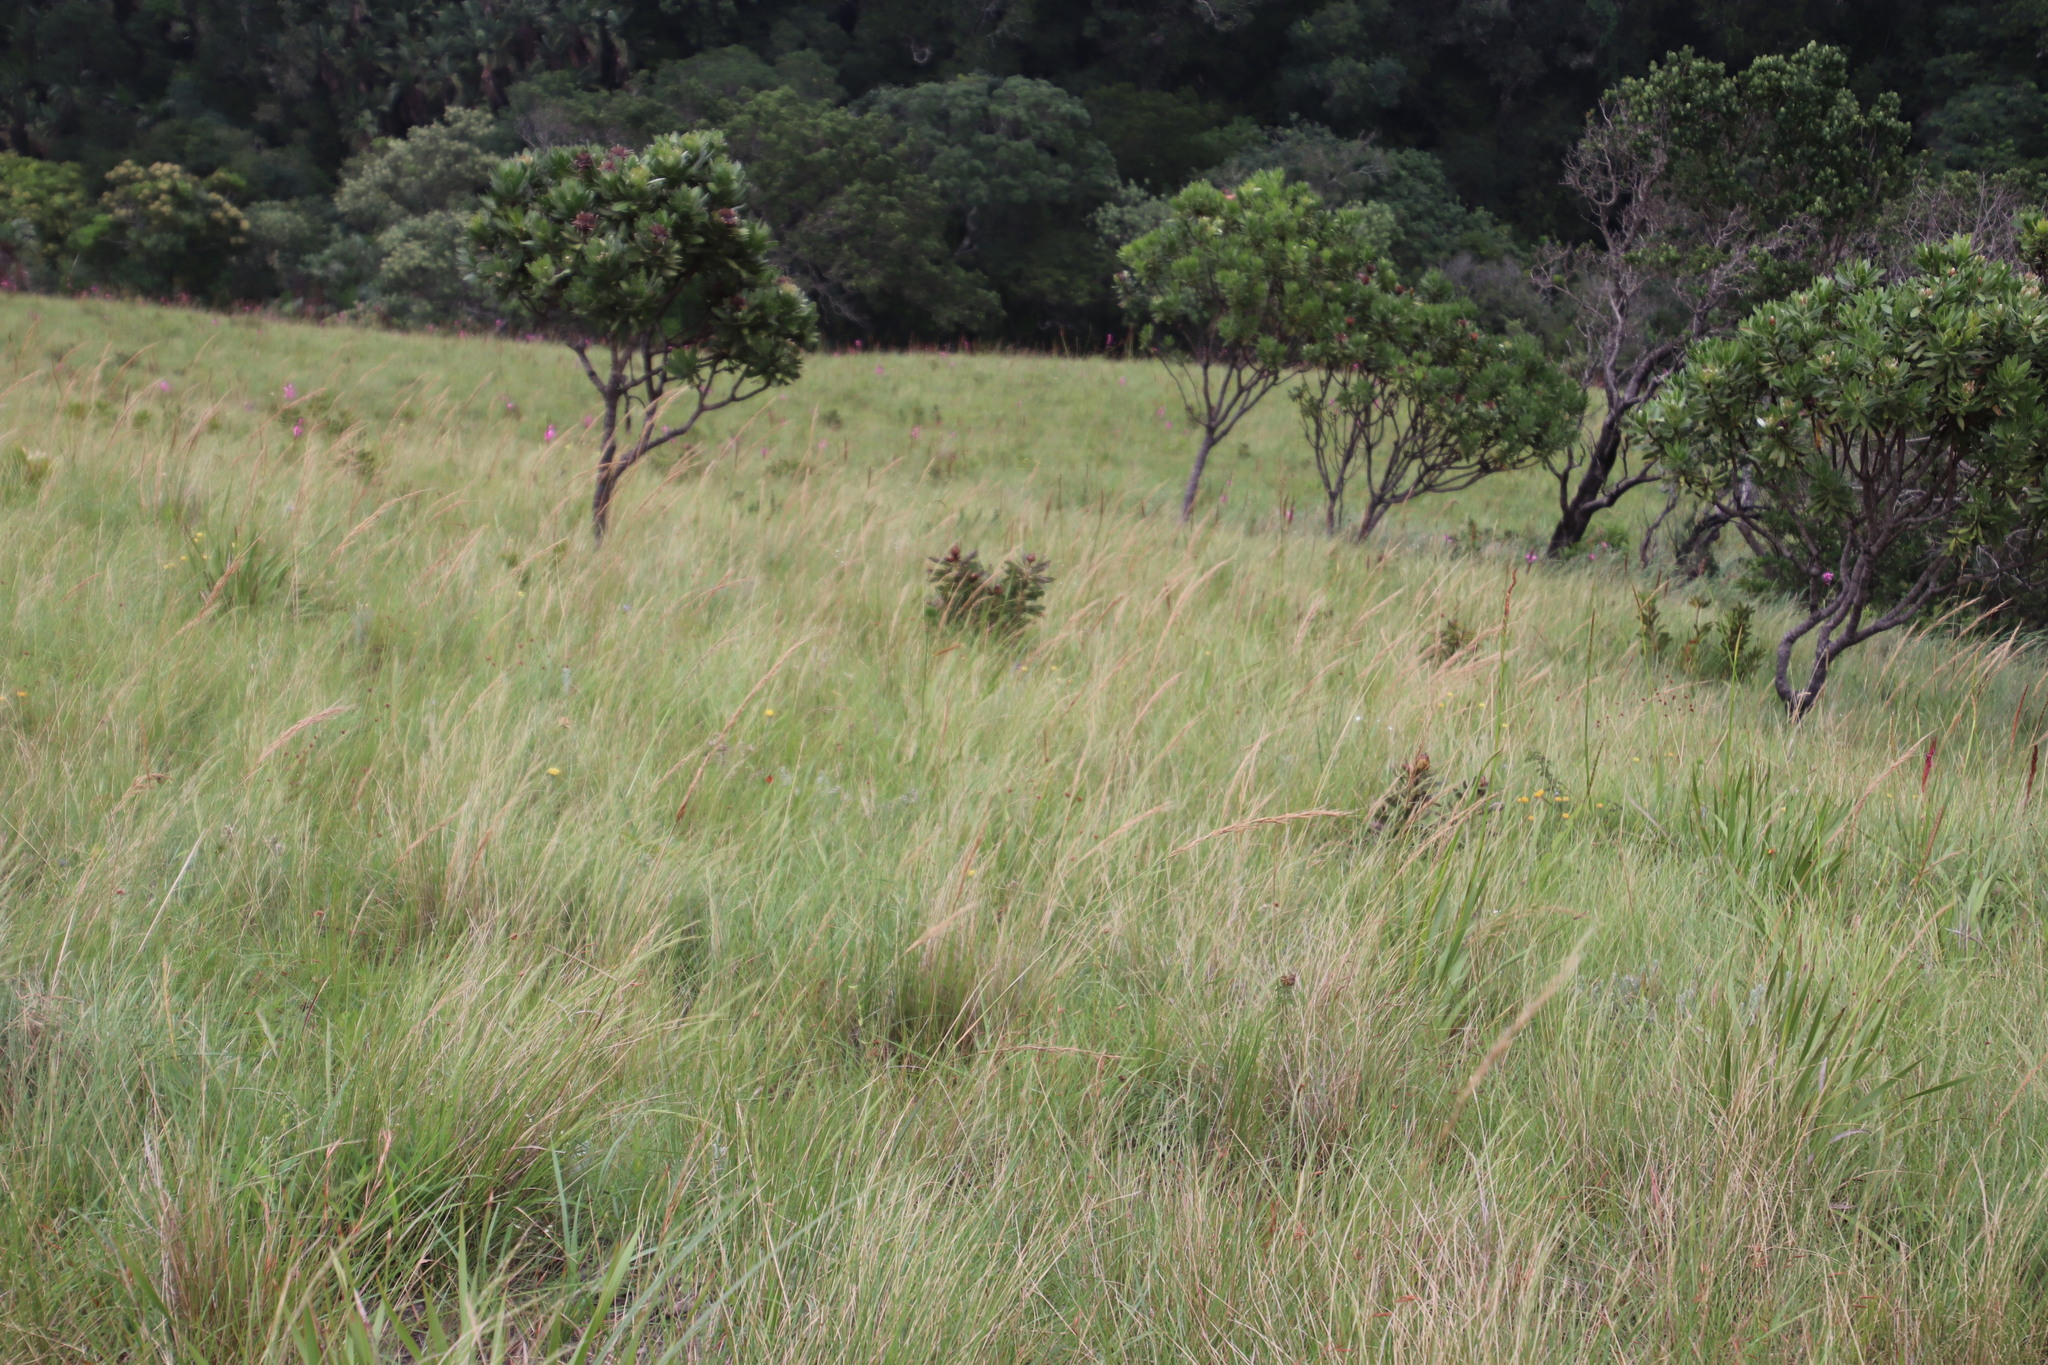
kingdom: Plantae
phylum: Tracheophyta
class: Magnoliopsida
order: Proteales
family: Proteaceae
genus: Protea
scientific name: Protea
